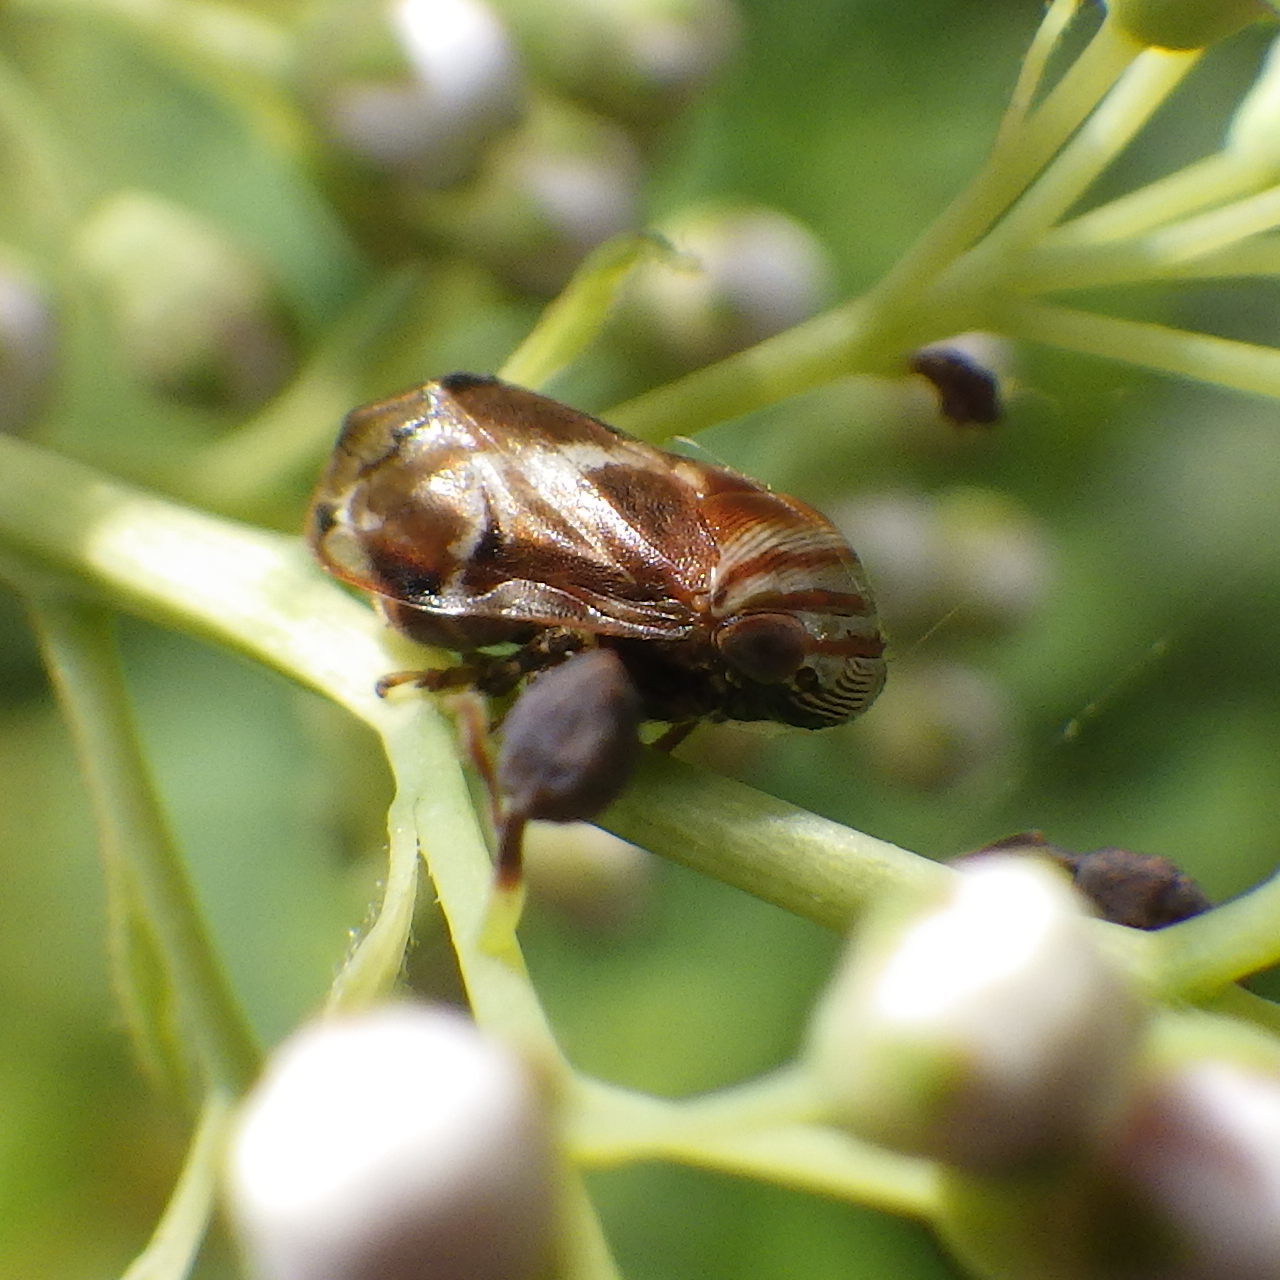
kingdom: Animalia
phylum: Arthropoda
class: Insecta
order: Hemiptera
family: Clastopteridae
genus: Clastoptera
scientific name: Clastoptera obtusa
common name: Alder spittlebug
